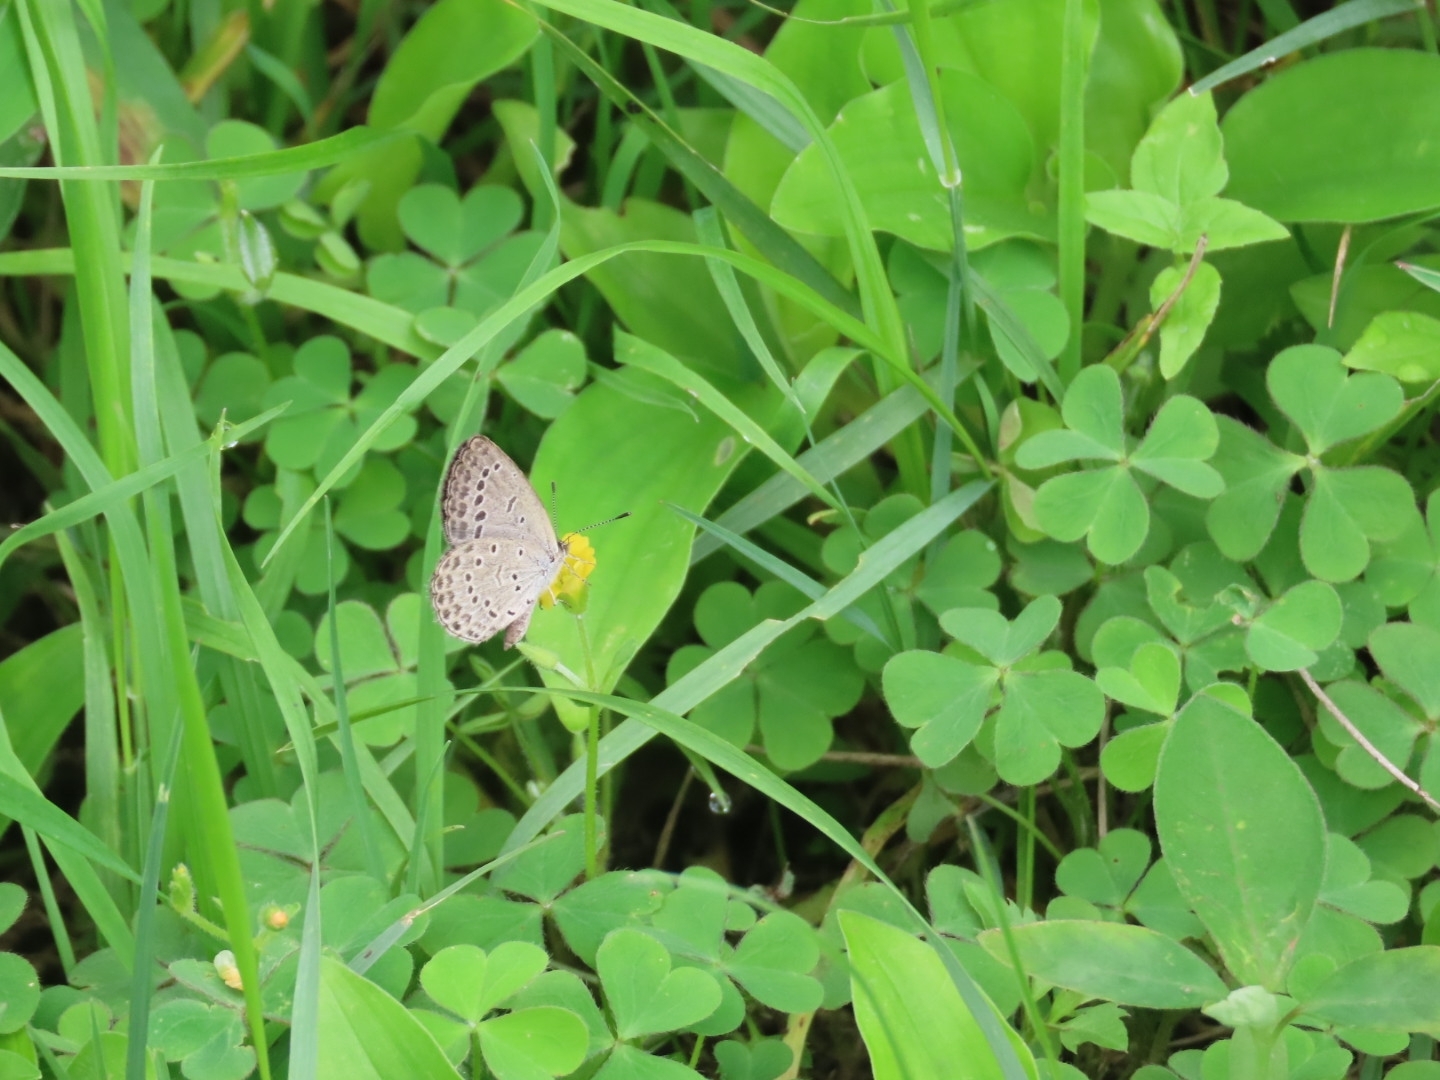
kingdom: Animalia
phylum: Arthropoda
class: Insecta
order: Lepidoptera
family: Lycaenidae
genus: Pseudozizeeria
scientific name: Pseudozizeeria maha
